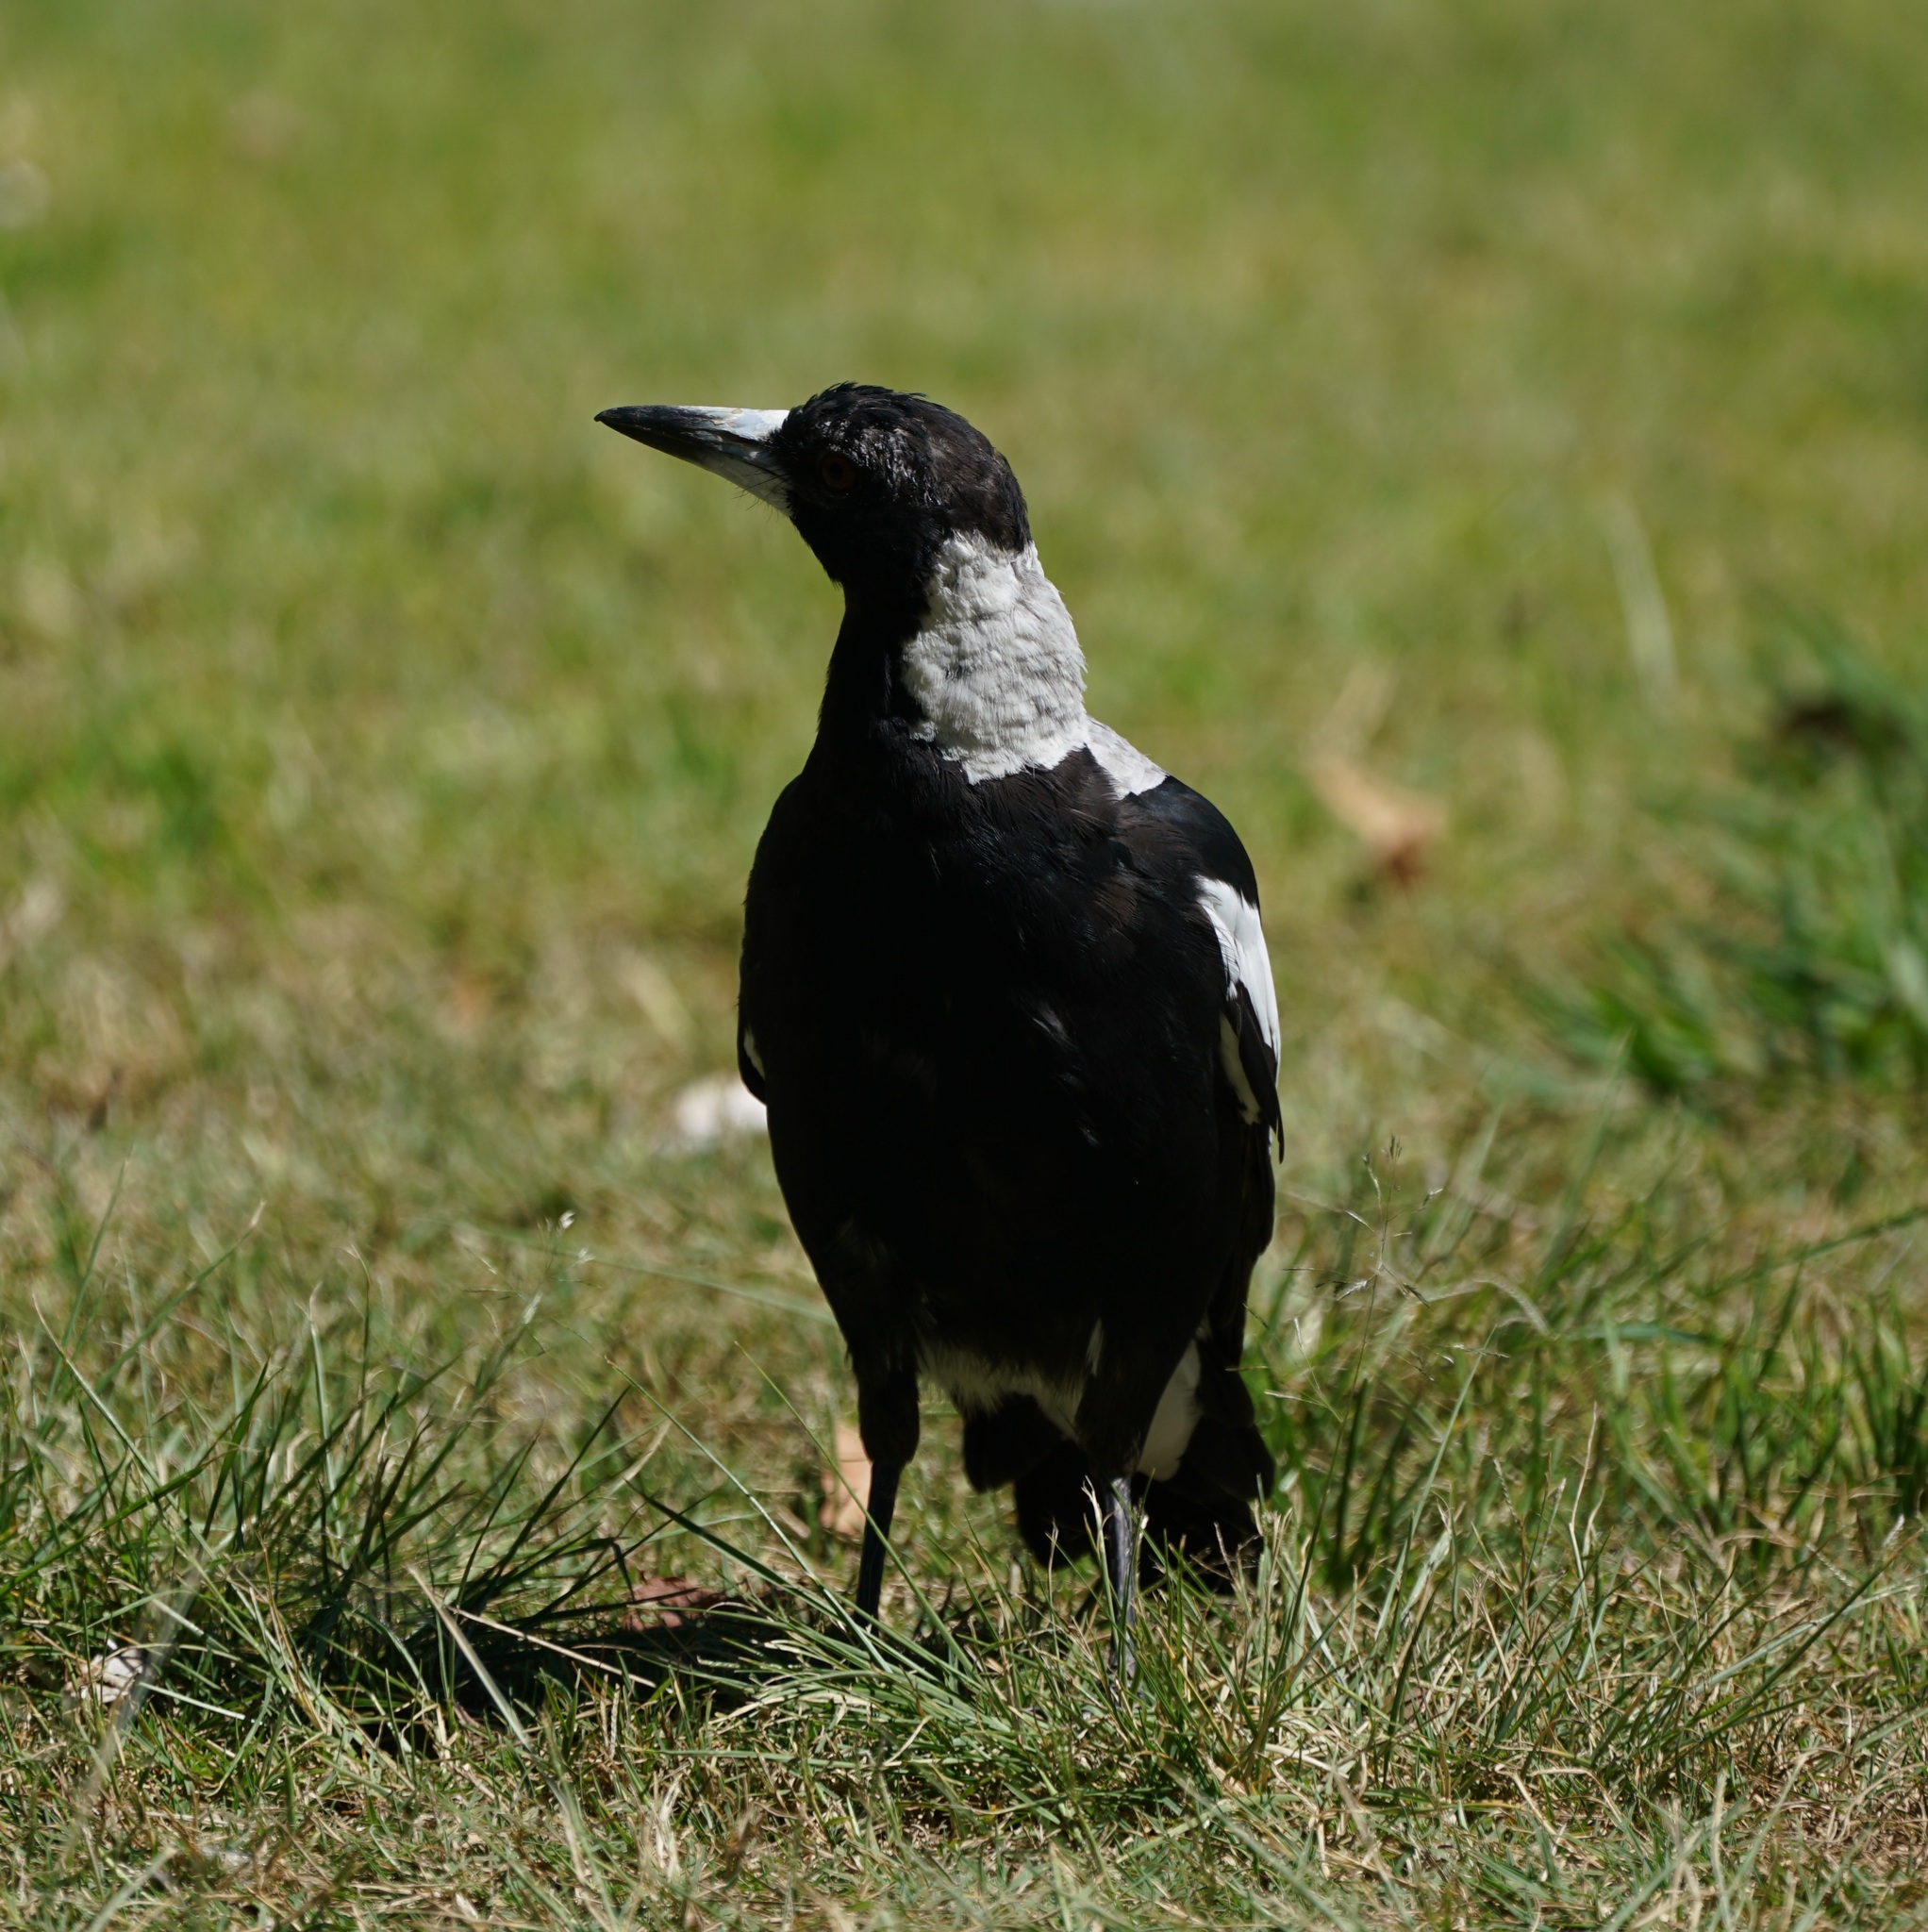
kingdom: Animalia
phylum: Chordata
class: Aves
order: Passeriformes
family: Cracticidae
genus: Gymnorhina
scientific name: Gymnorhina tibicen
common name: Australian magpie
